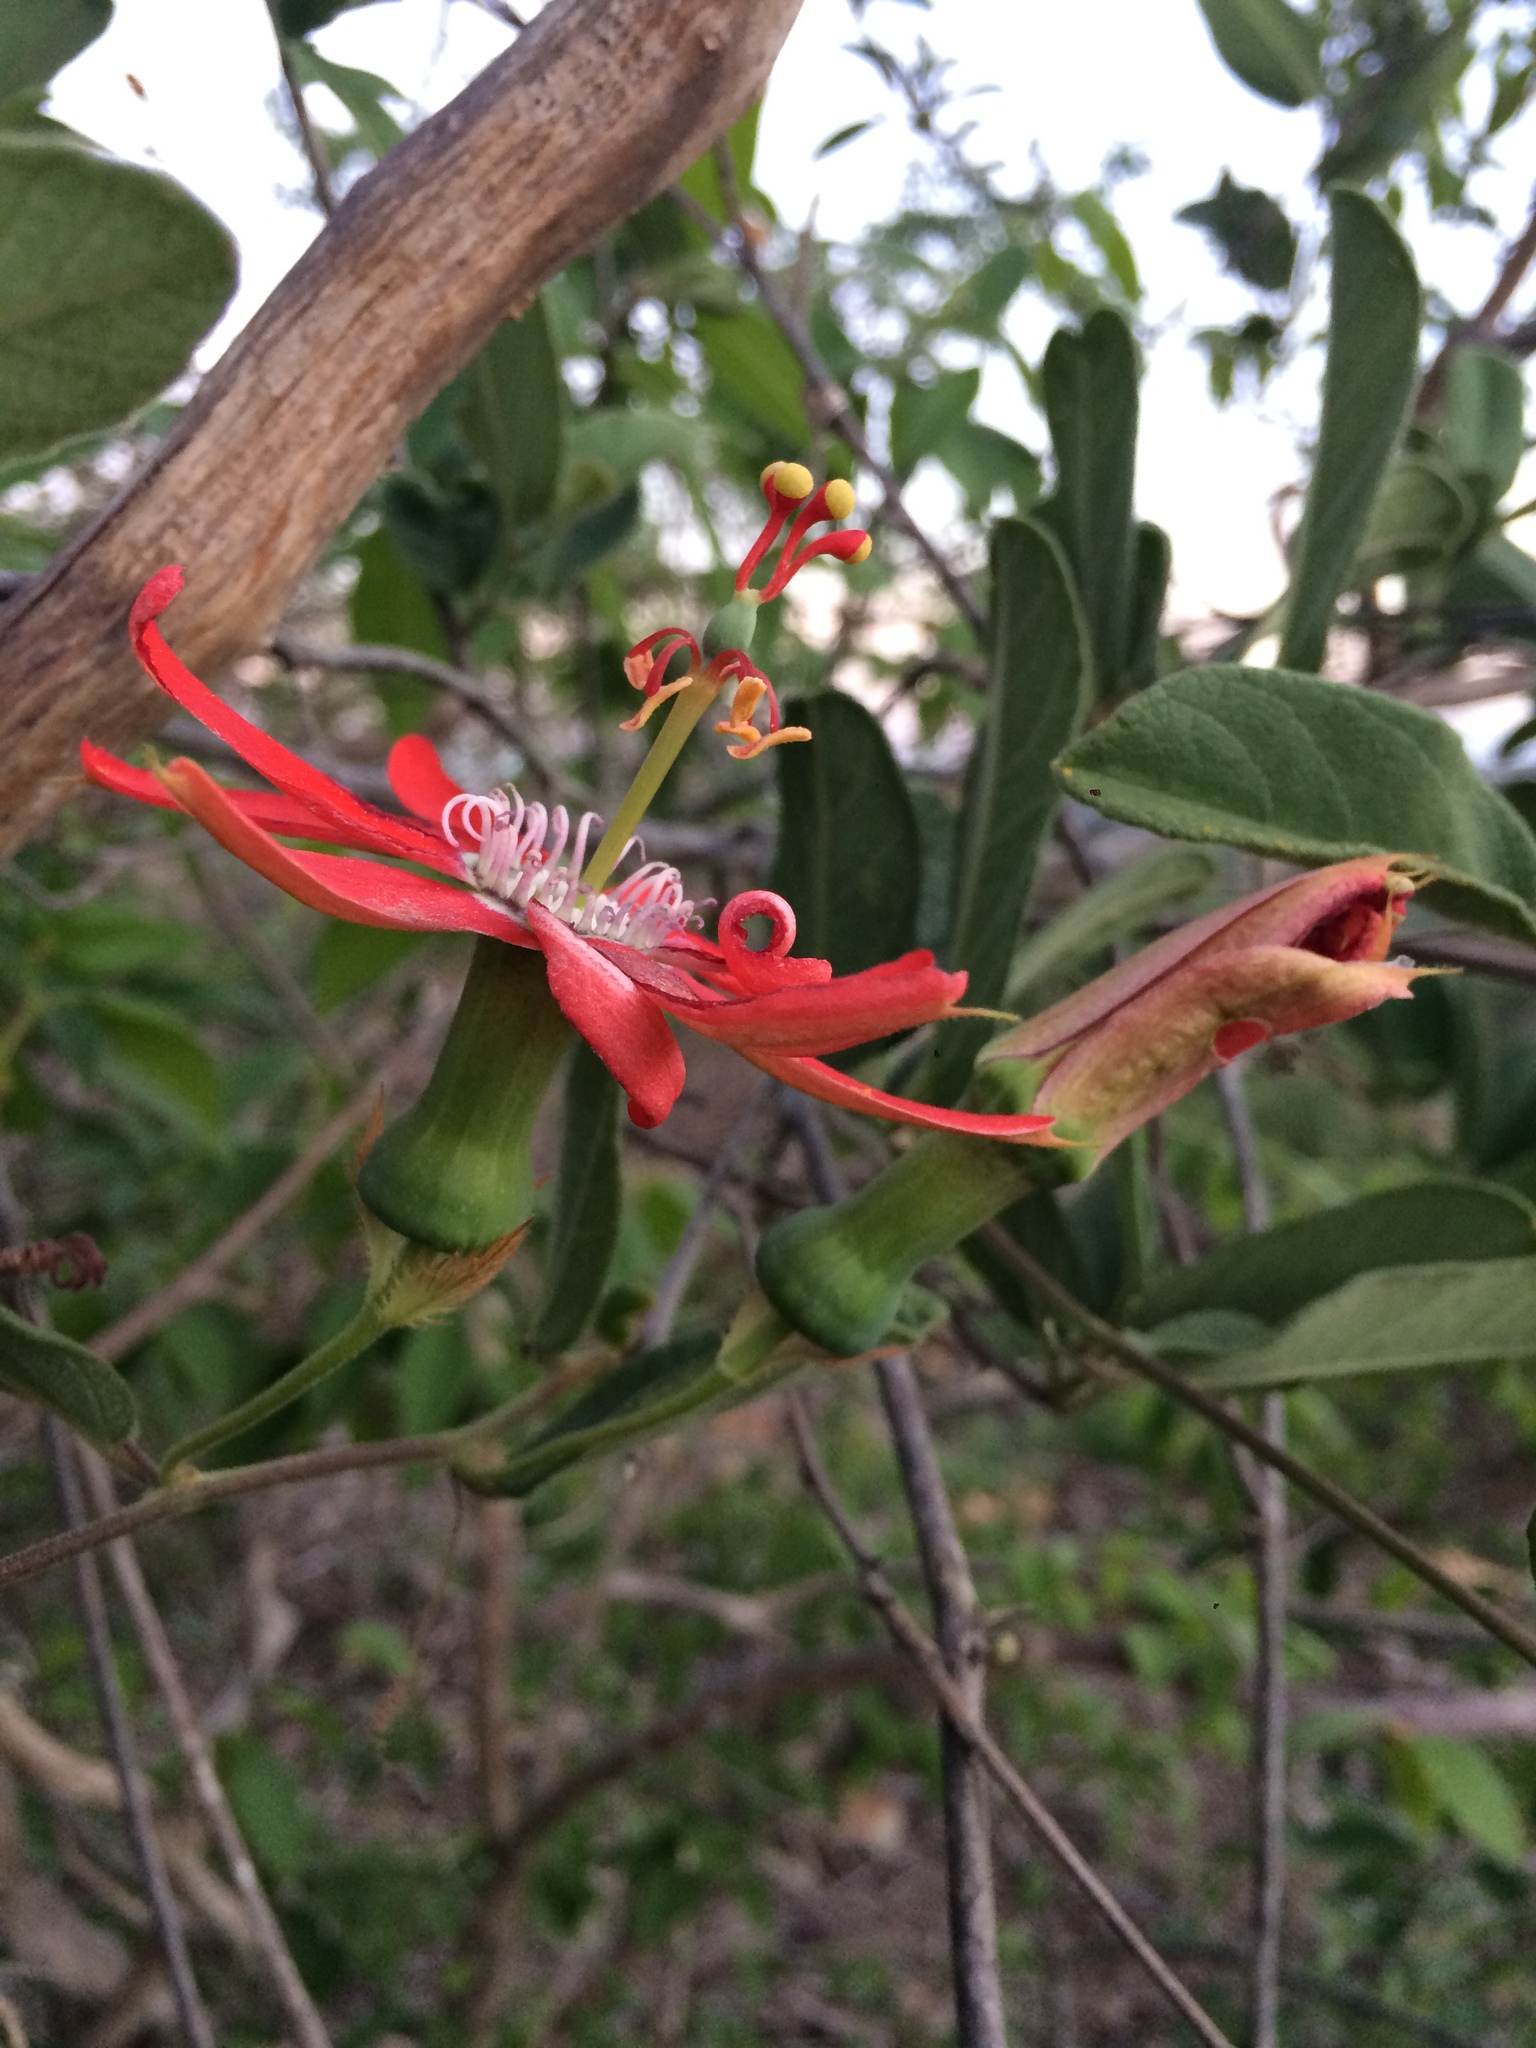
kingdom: Plantae
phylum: Tracheophyta
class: Magnoliopsida
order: Malpighiales
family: Passifloraceae
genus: Passiflora
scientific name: Passiflora luetzelburgii
